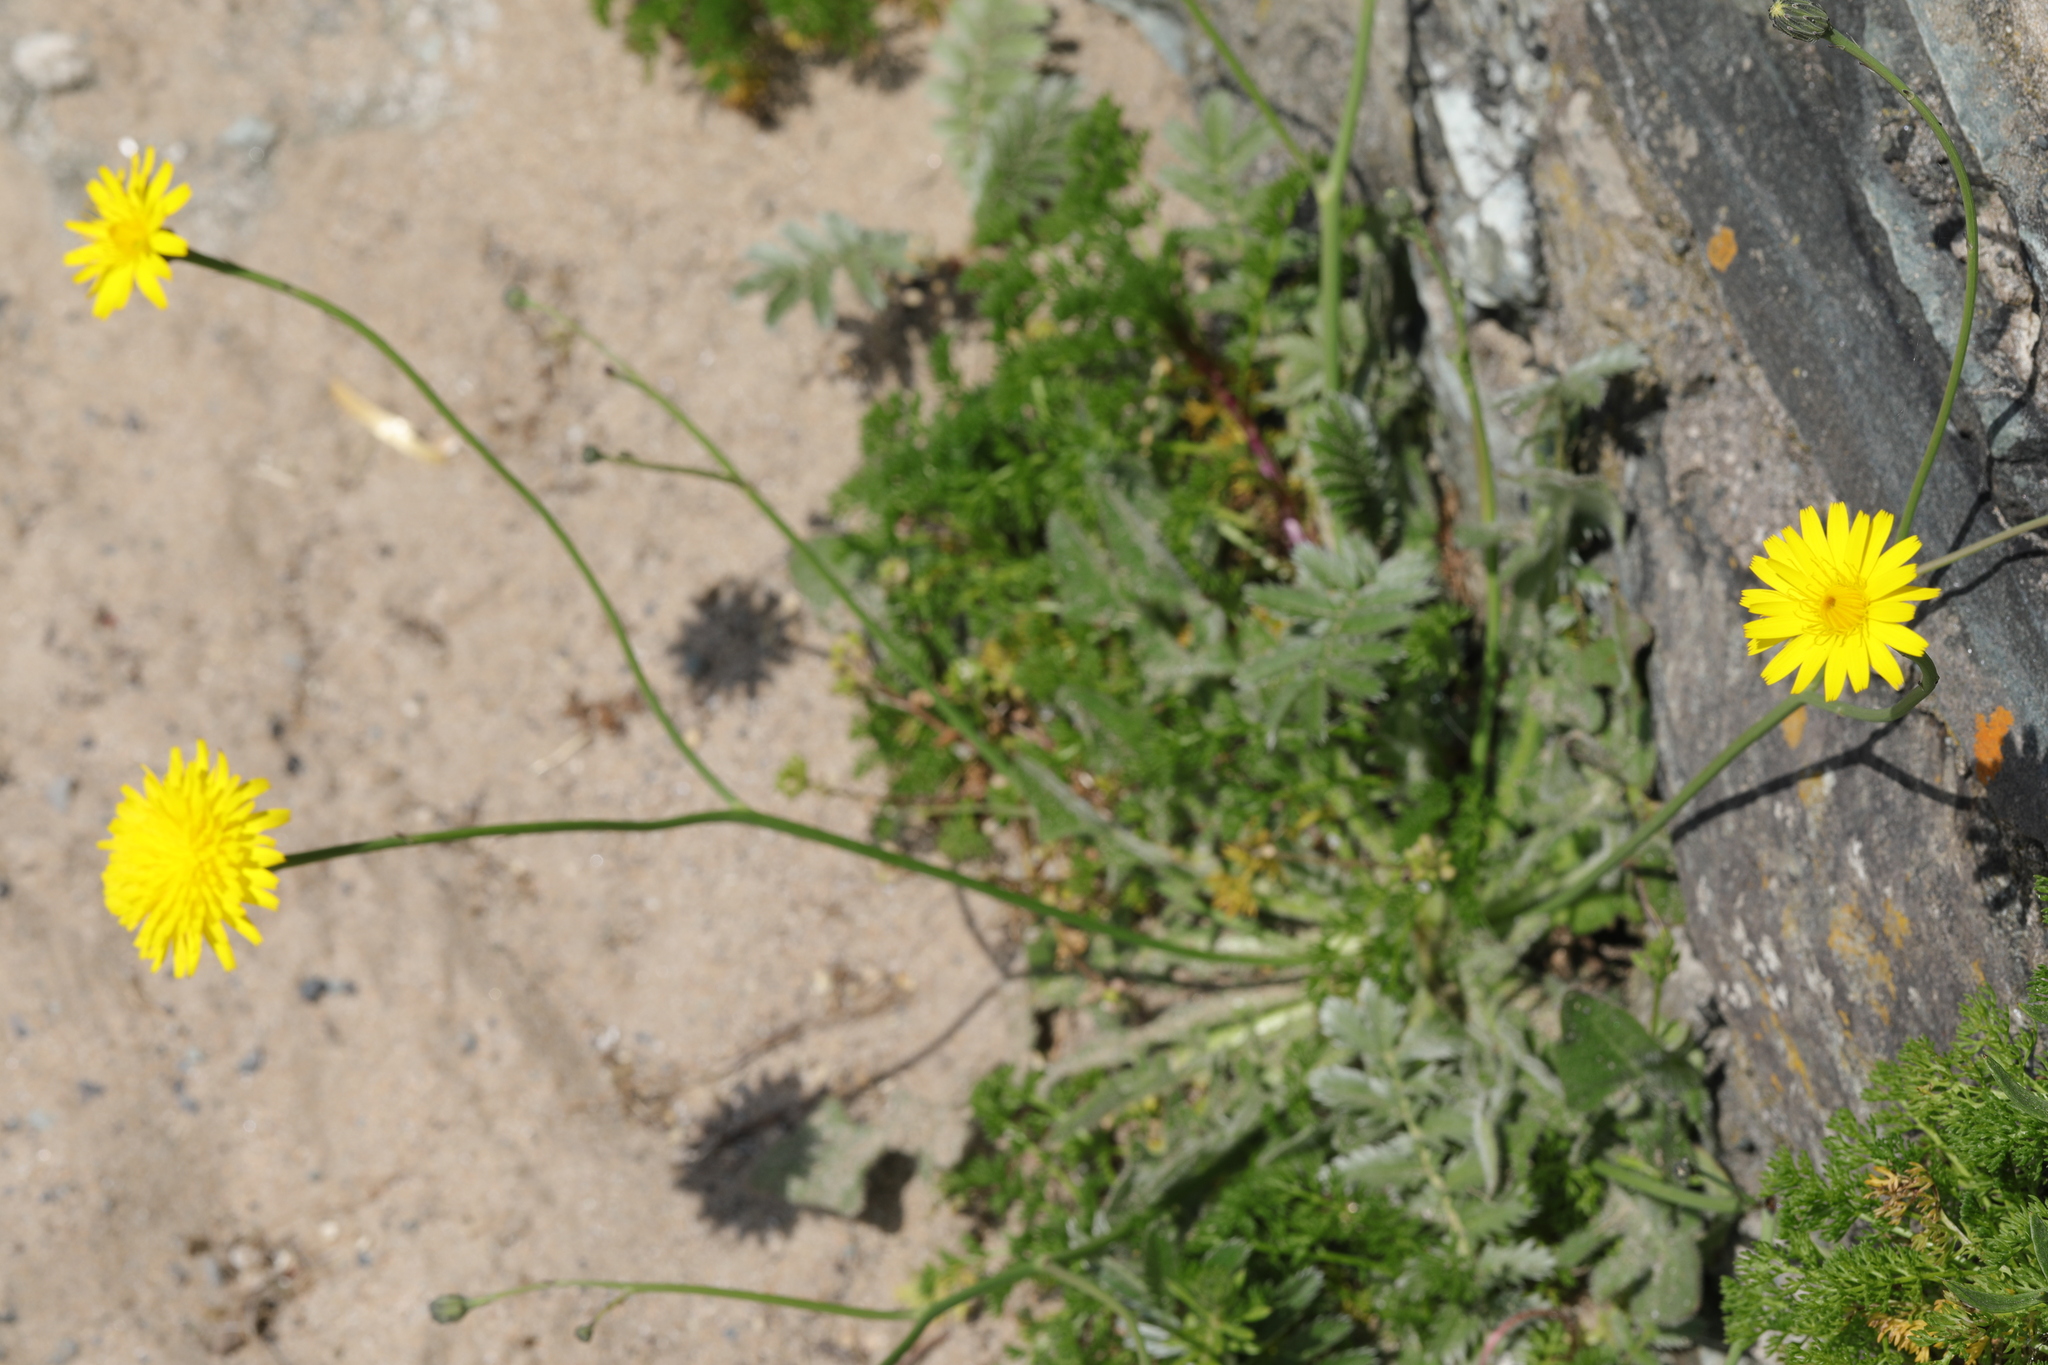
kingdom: Plantae
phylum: Tracheophyta
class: Magnoliopsida
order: Asterales
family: Asteraceae
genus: Hypochaeris
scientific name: Hypochaeris radicata
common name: Flatweed
